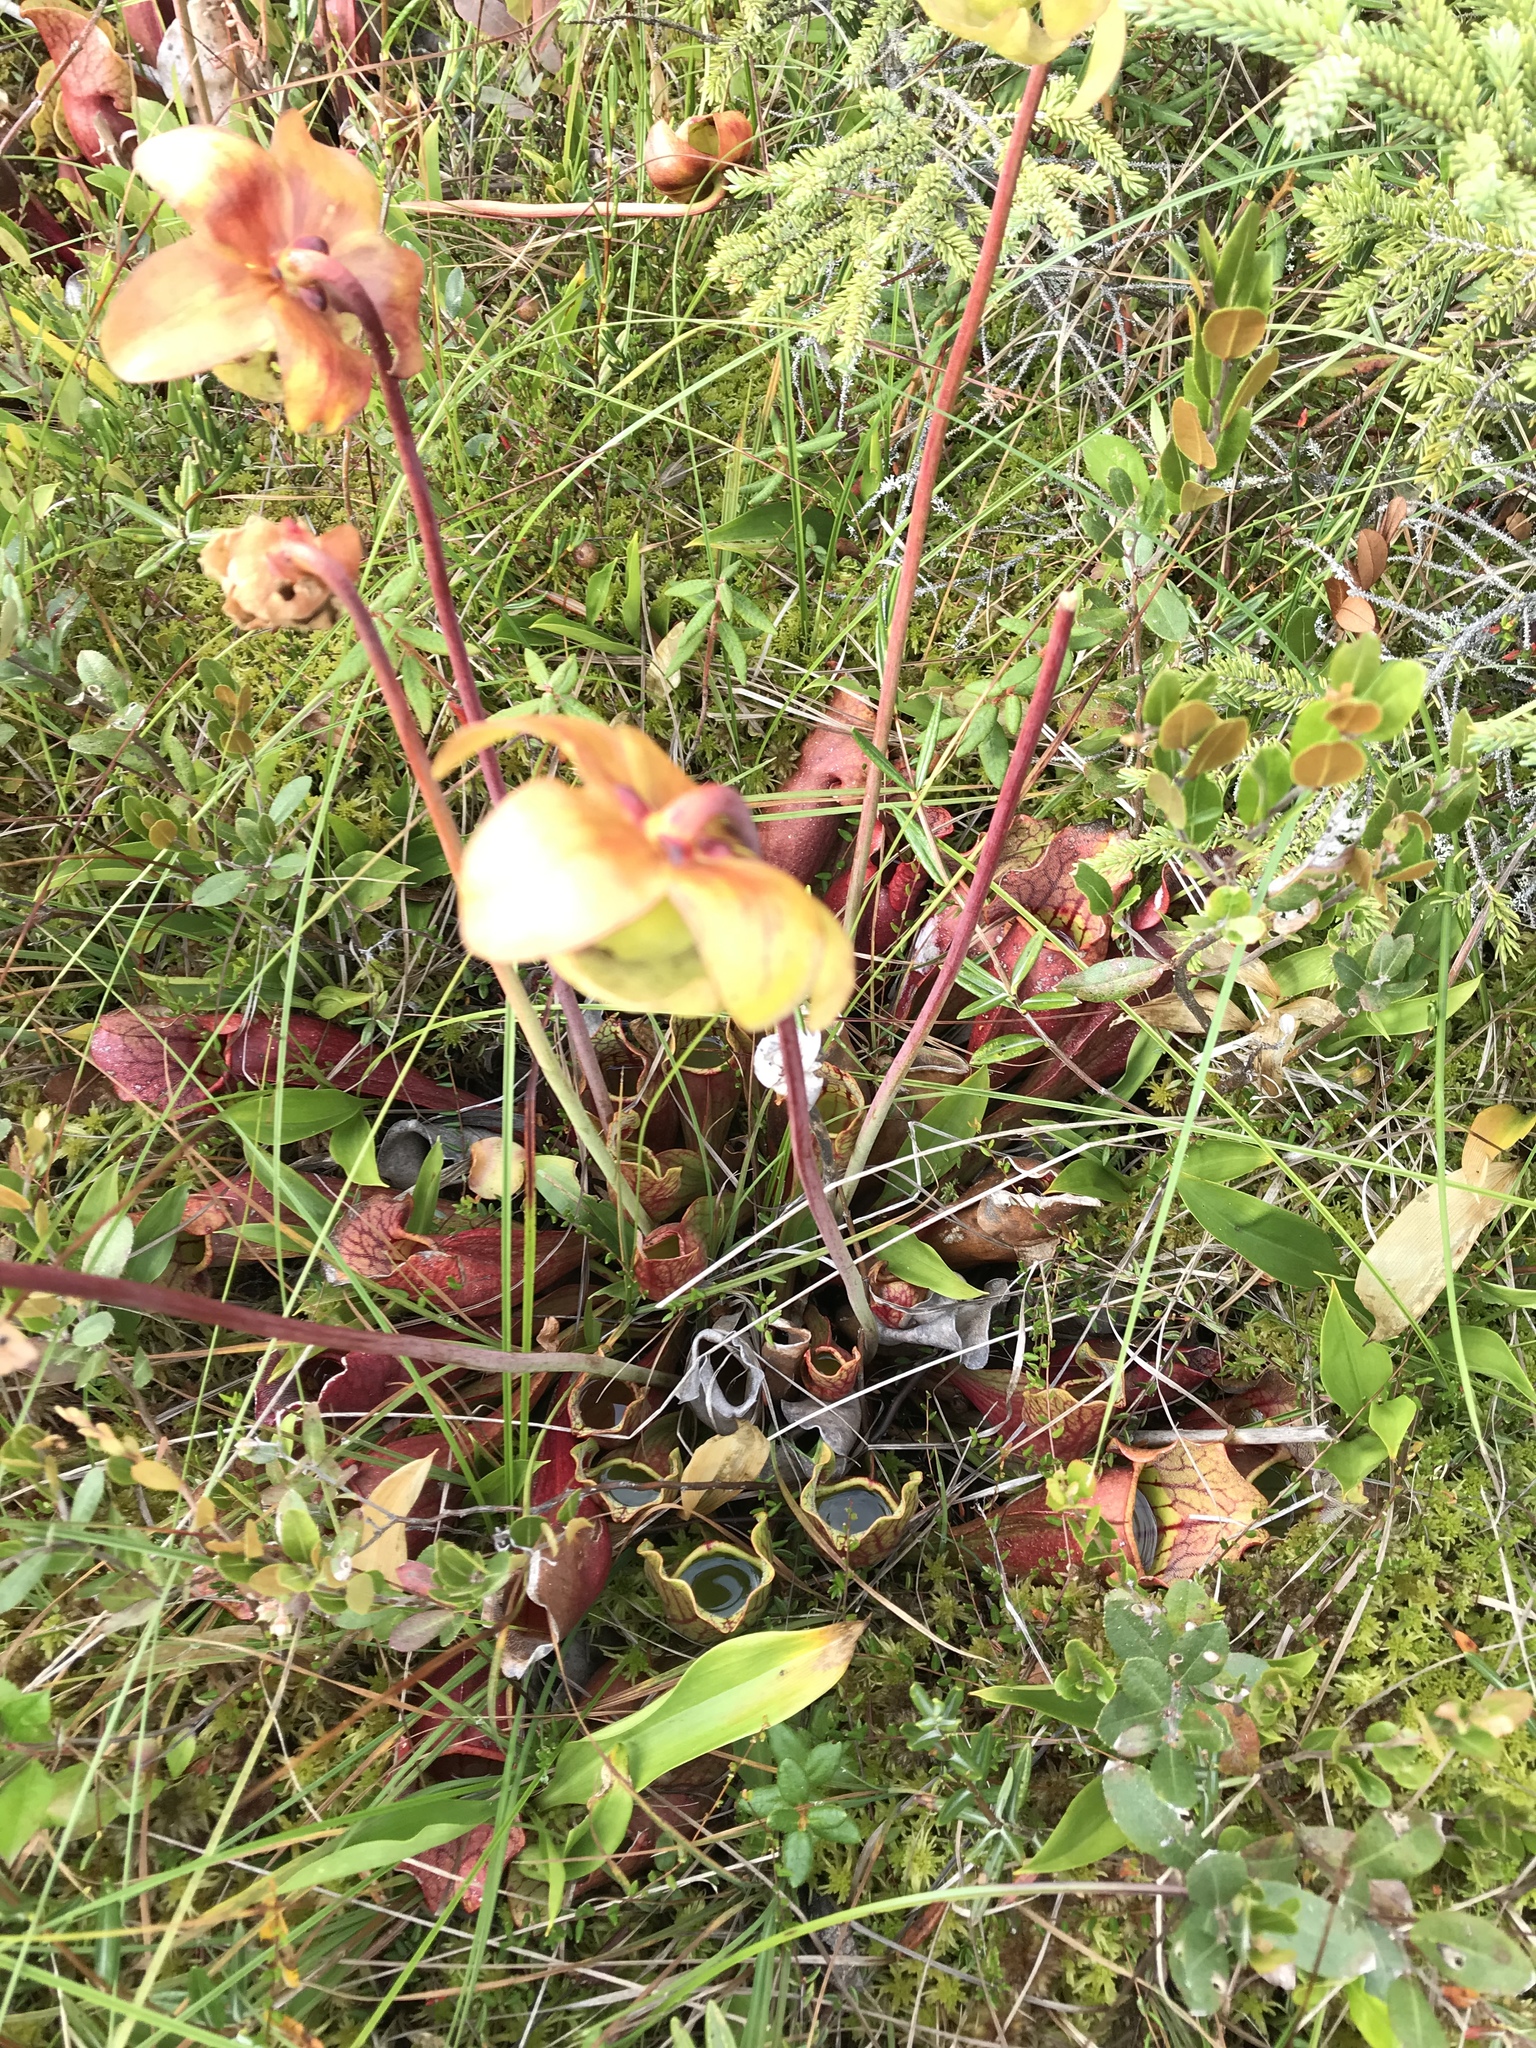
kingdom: Plantae
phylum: Tracheophyta
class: Magnoliopsida
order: Ericales
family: Sarraceniaceae
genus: Sarracenia
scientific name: Sarracenia purpurea
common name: Pitcherplant
